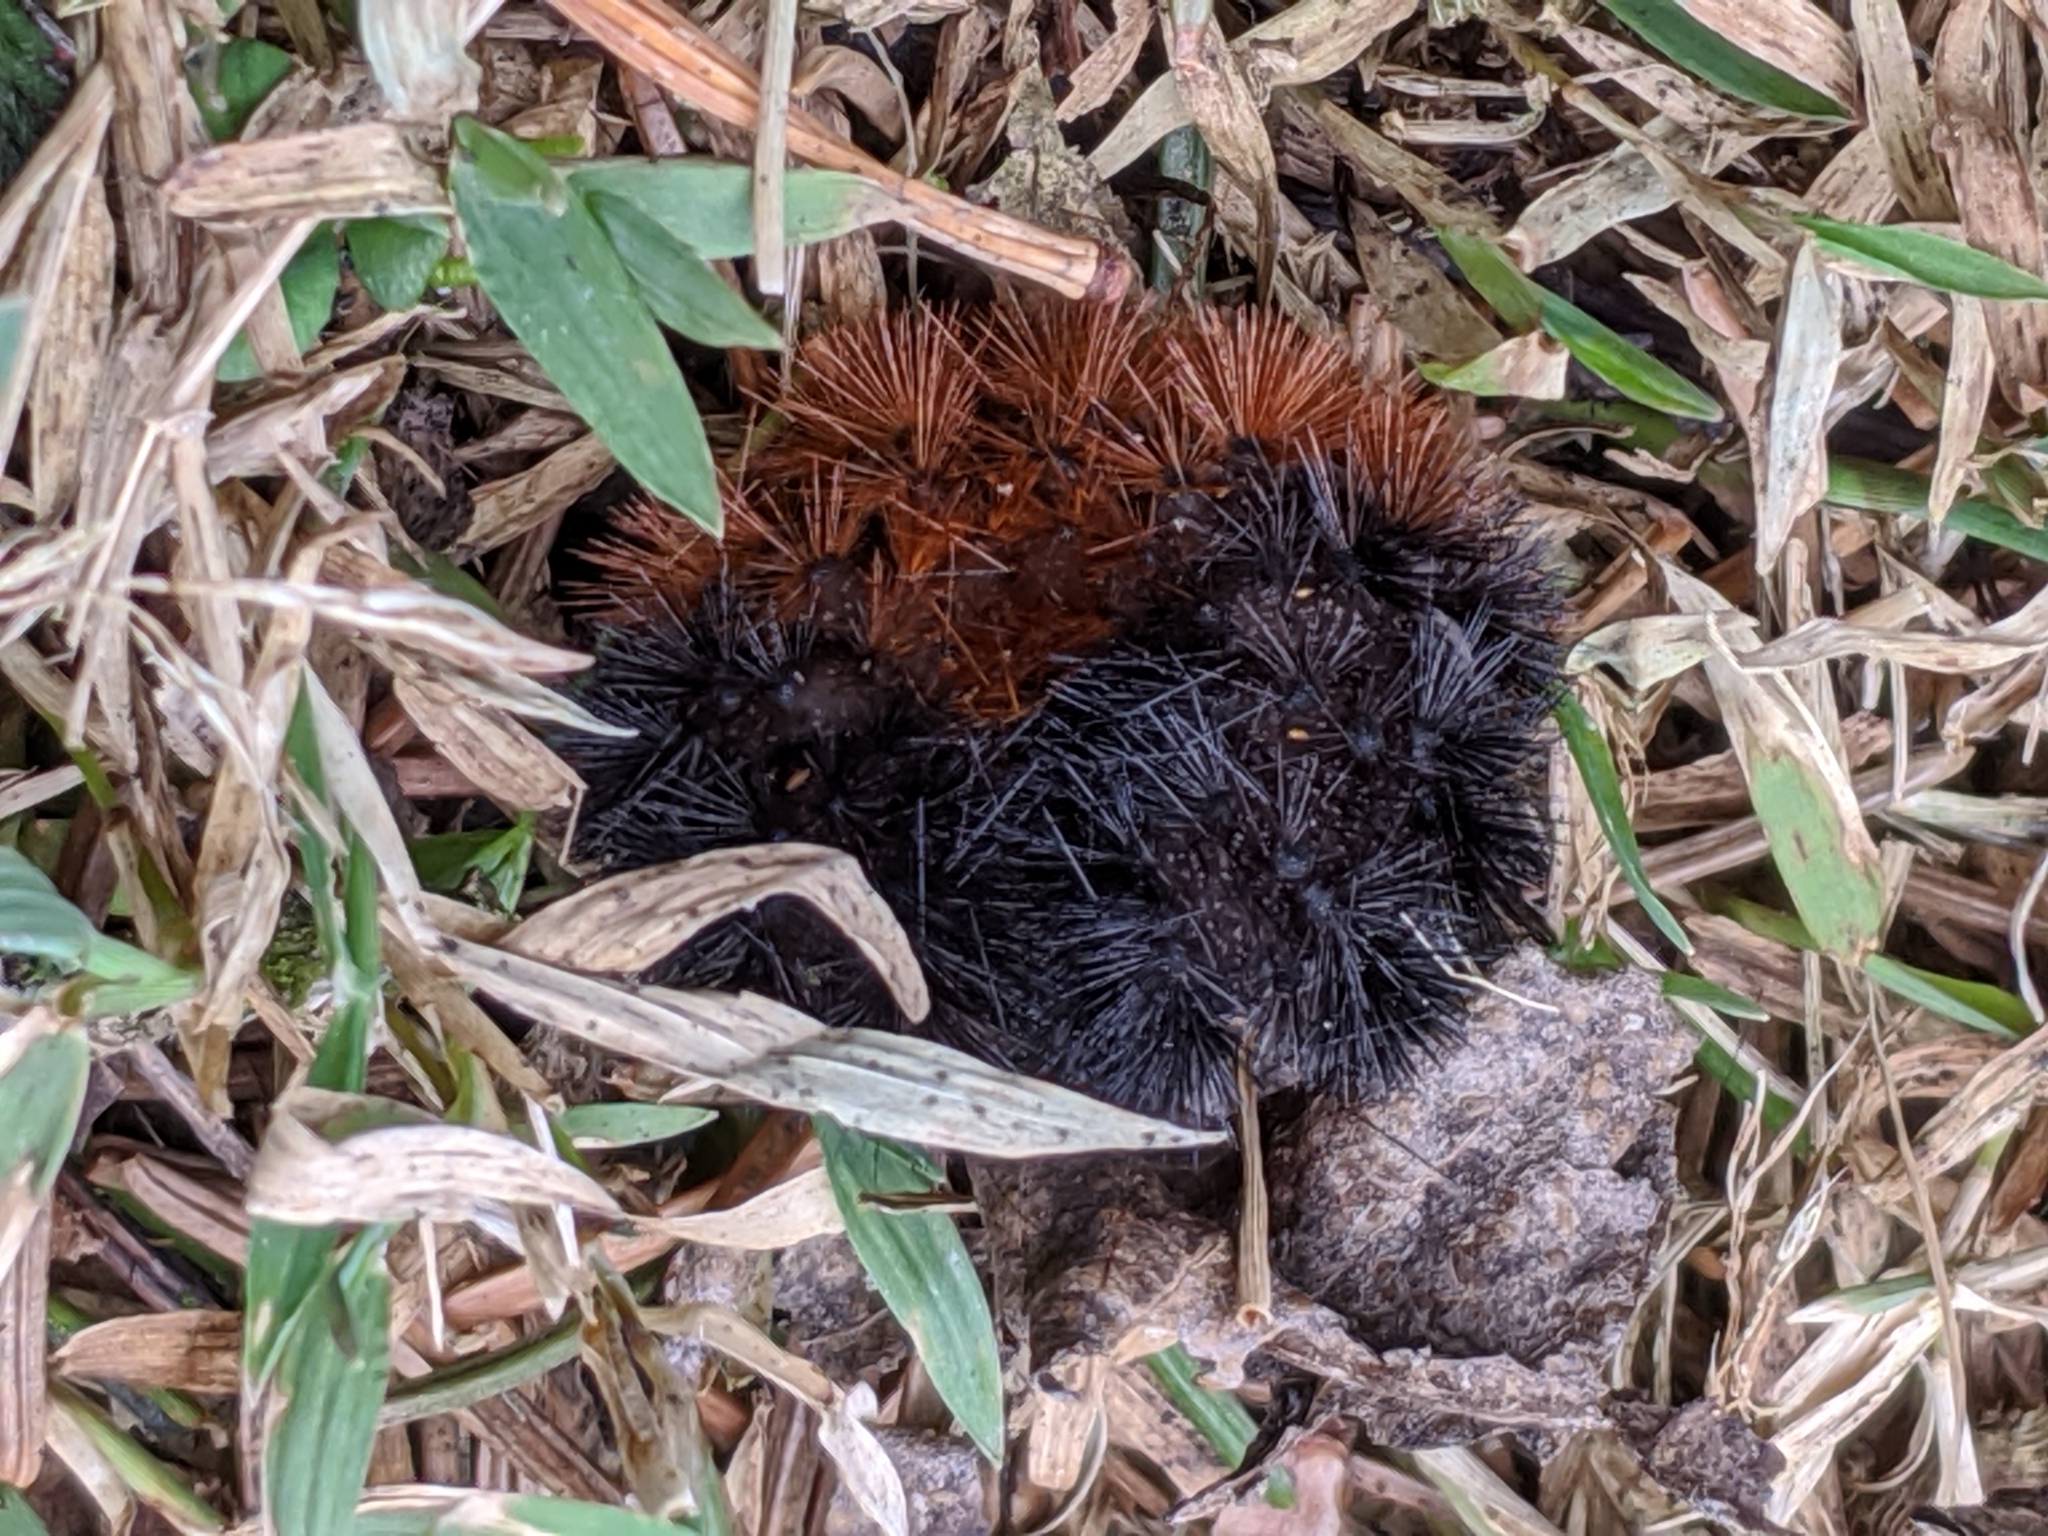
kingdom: Animalia
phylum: Arthropoda
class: Insecta
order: Lepidoptera
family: Erebidae
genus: Pyrrharctia
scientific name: Pyrrharctia isabella
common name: Isabella tiger moth
